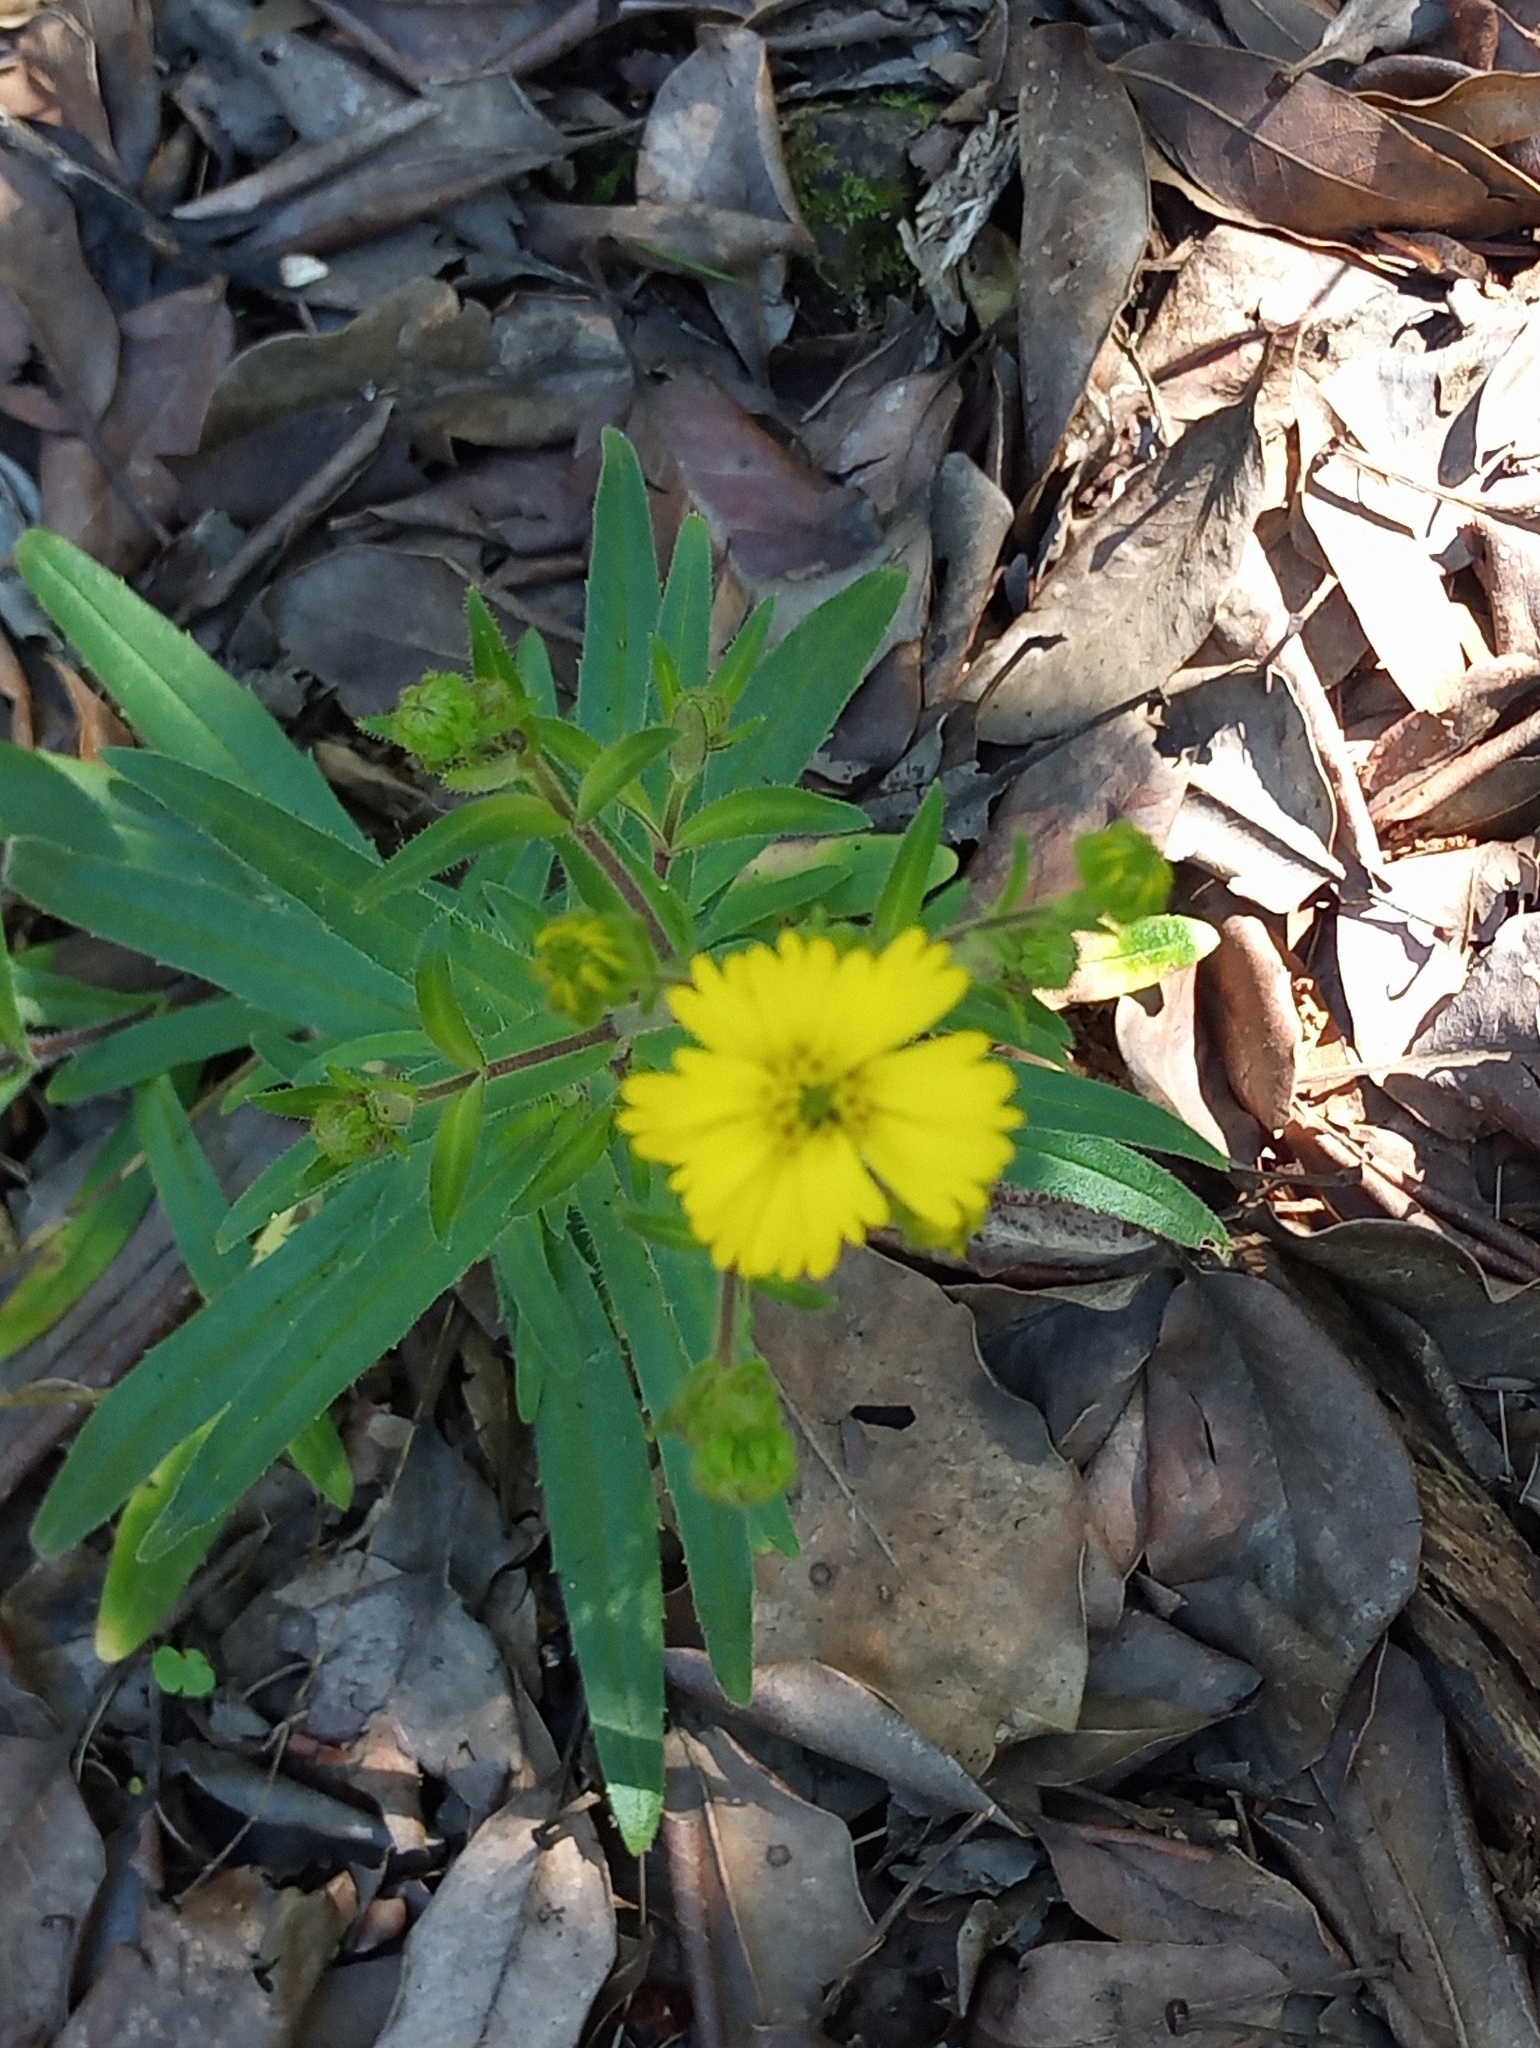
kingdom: Plantae
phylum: Tracheophyta
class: Magnoliopsida
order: Asterales
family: Asteraceae
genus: Anisocarpus
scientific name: Anisocarpus madioides
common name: Woodland madia
